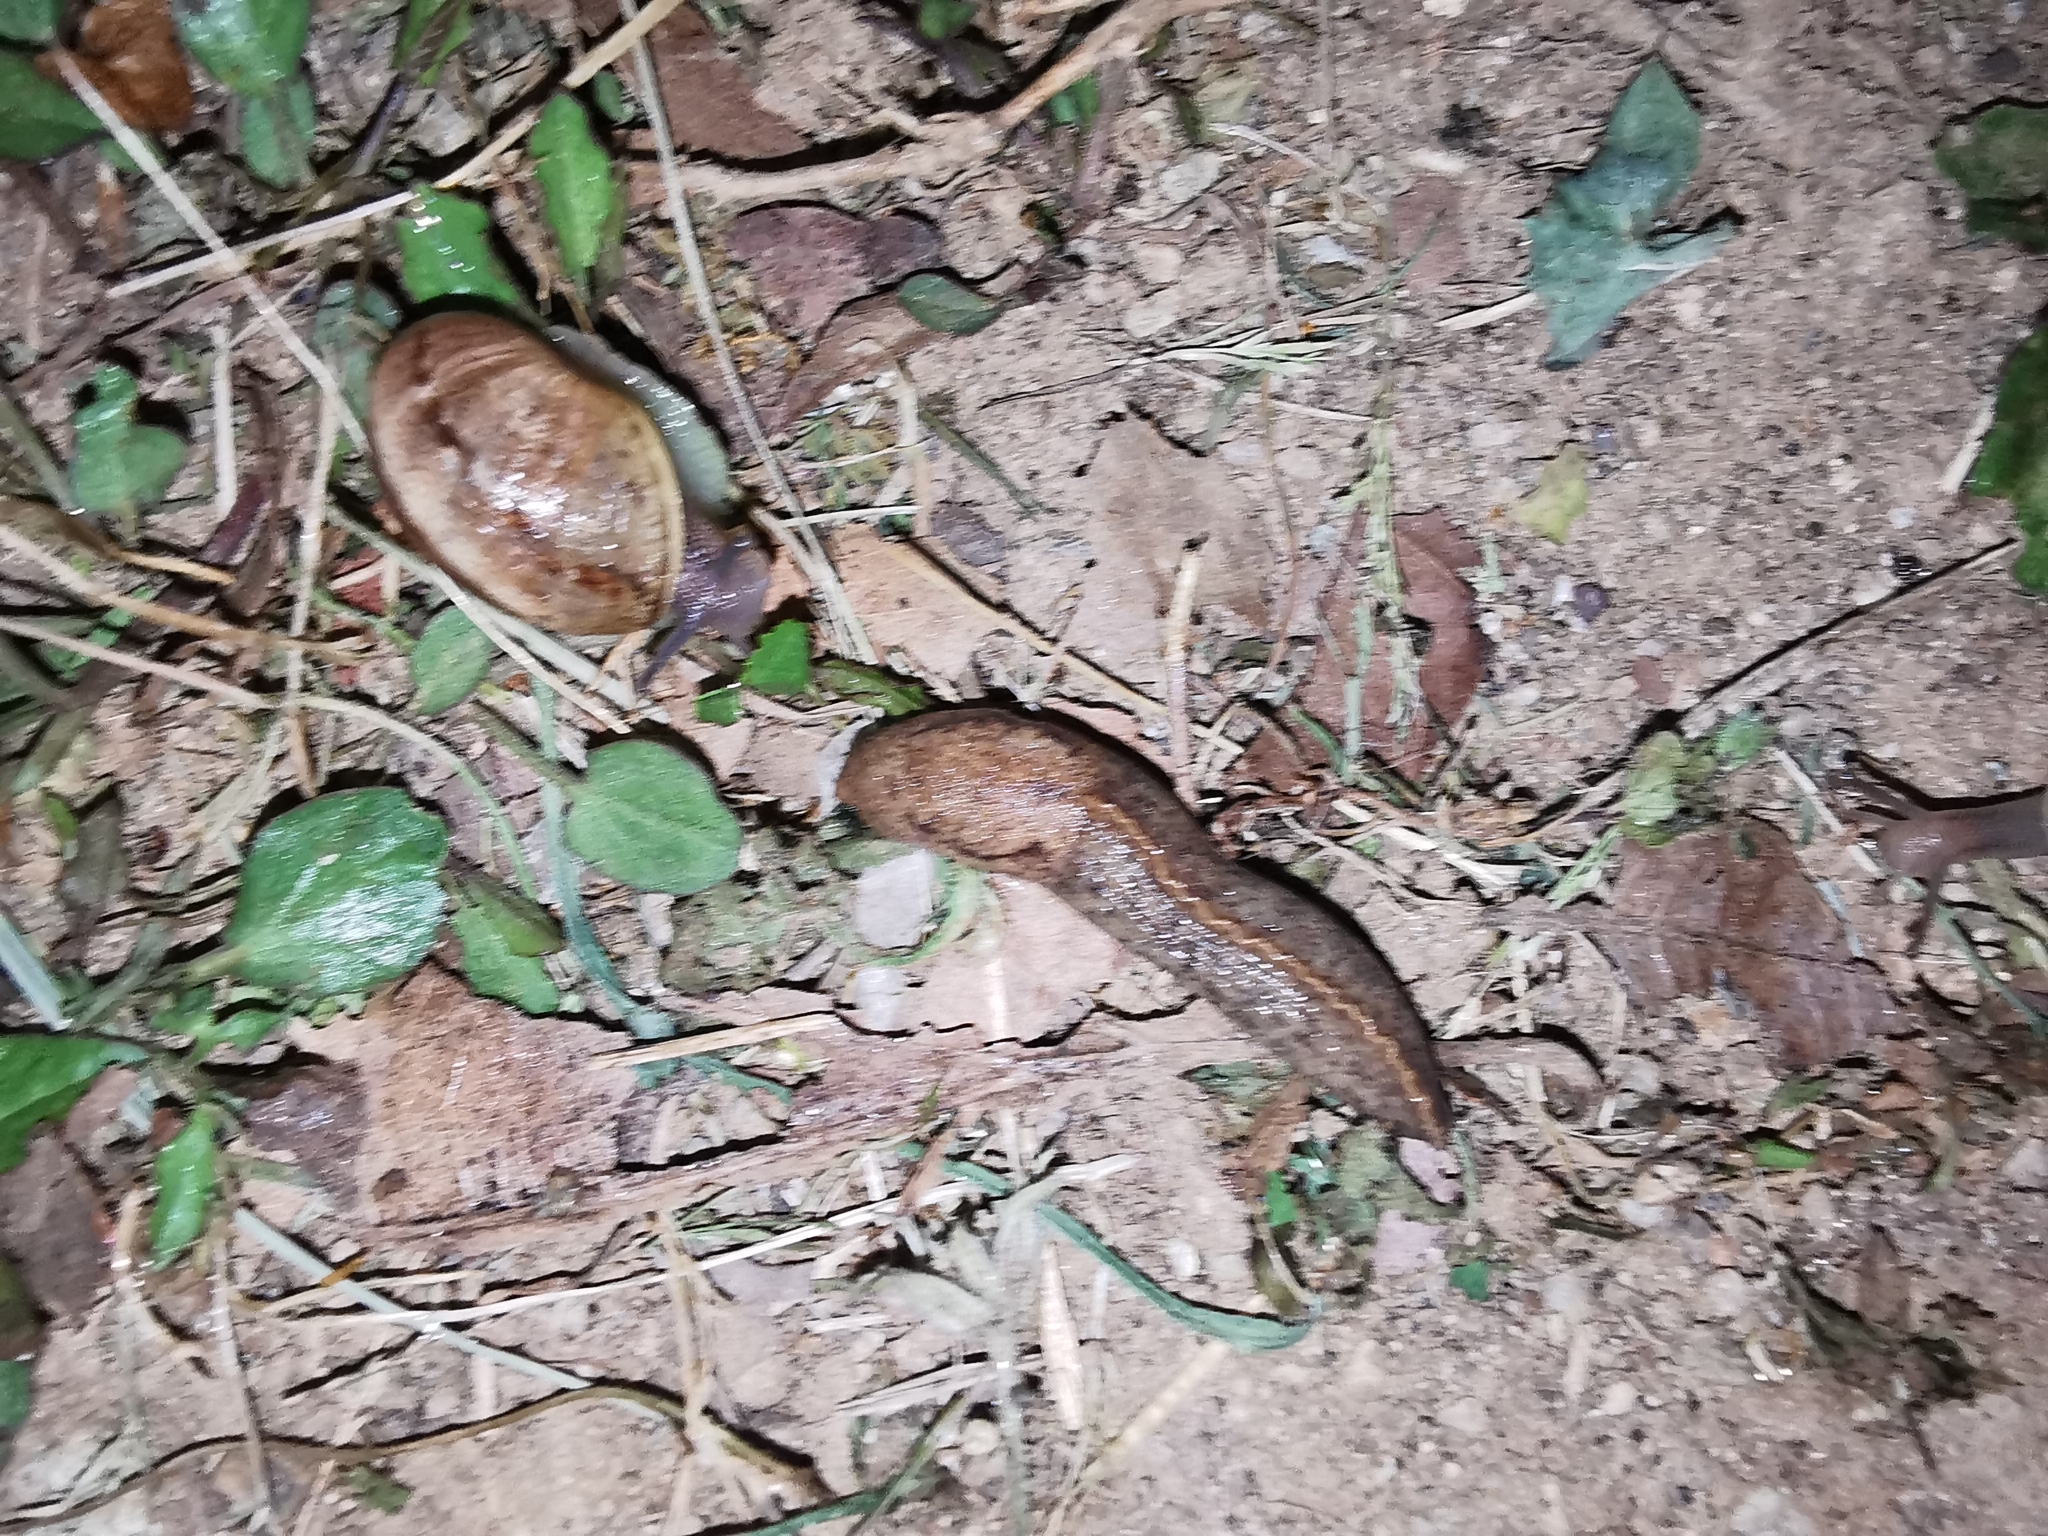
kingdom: Animalia
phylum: Mollusca
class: Gastropoda
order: Stylommatophora
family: Milacidae
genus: Tandonia
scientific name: Tandonia sowerbyi
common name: Keeled slug
